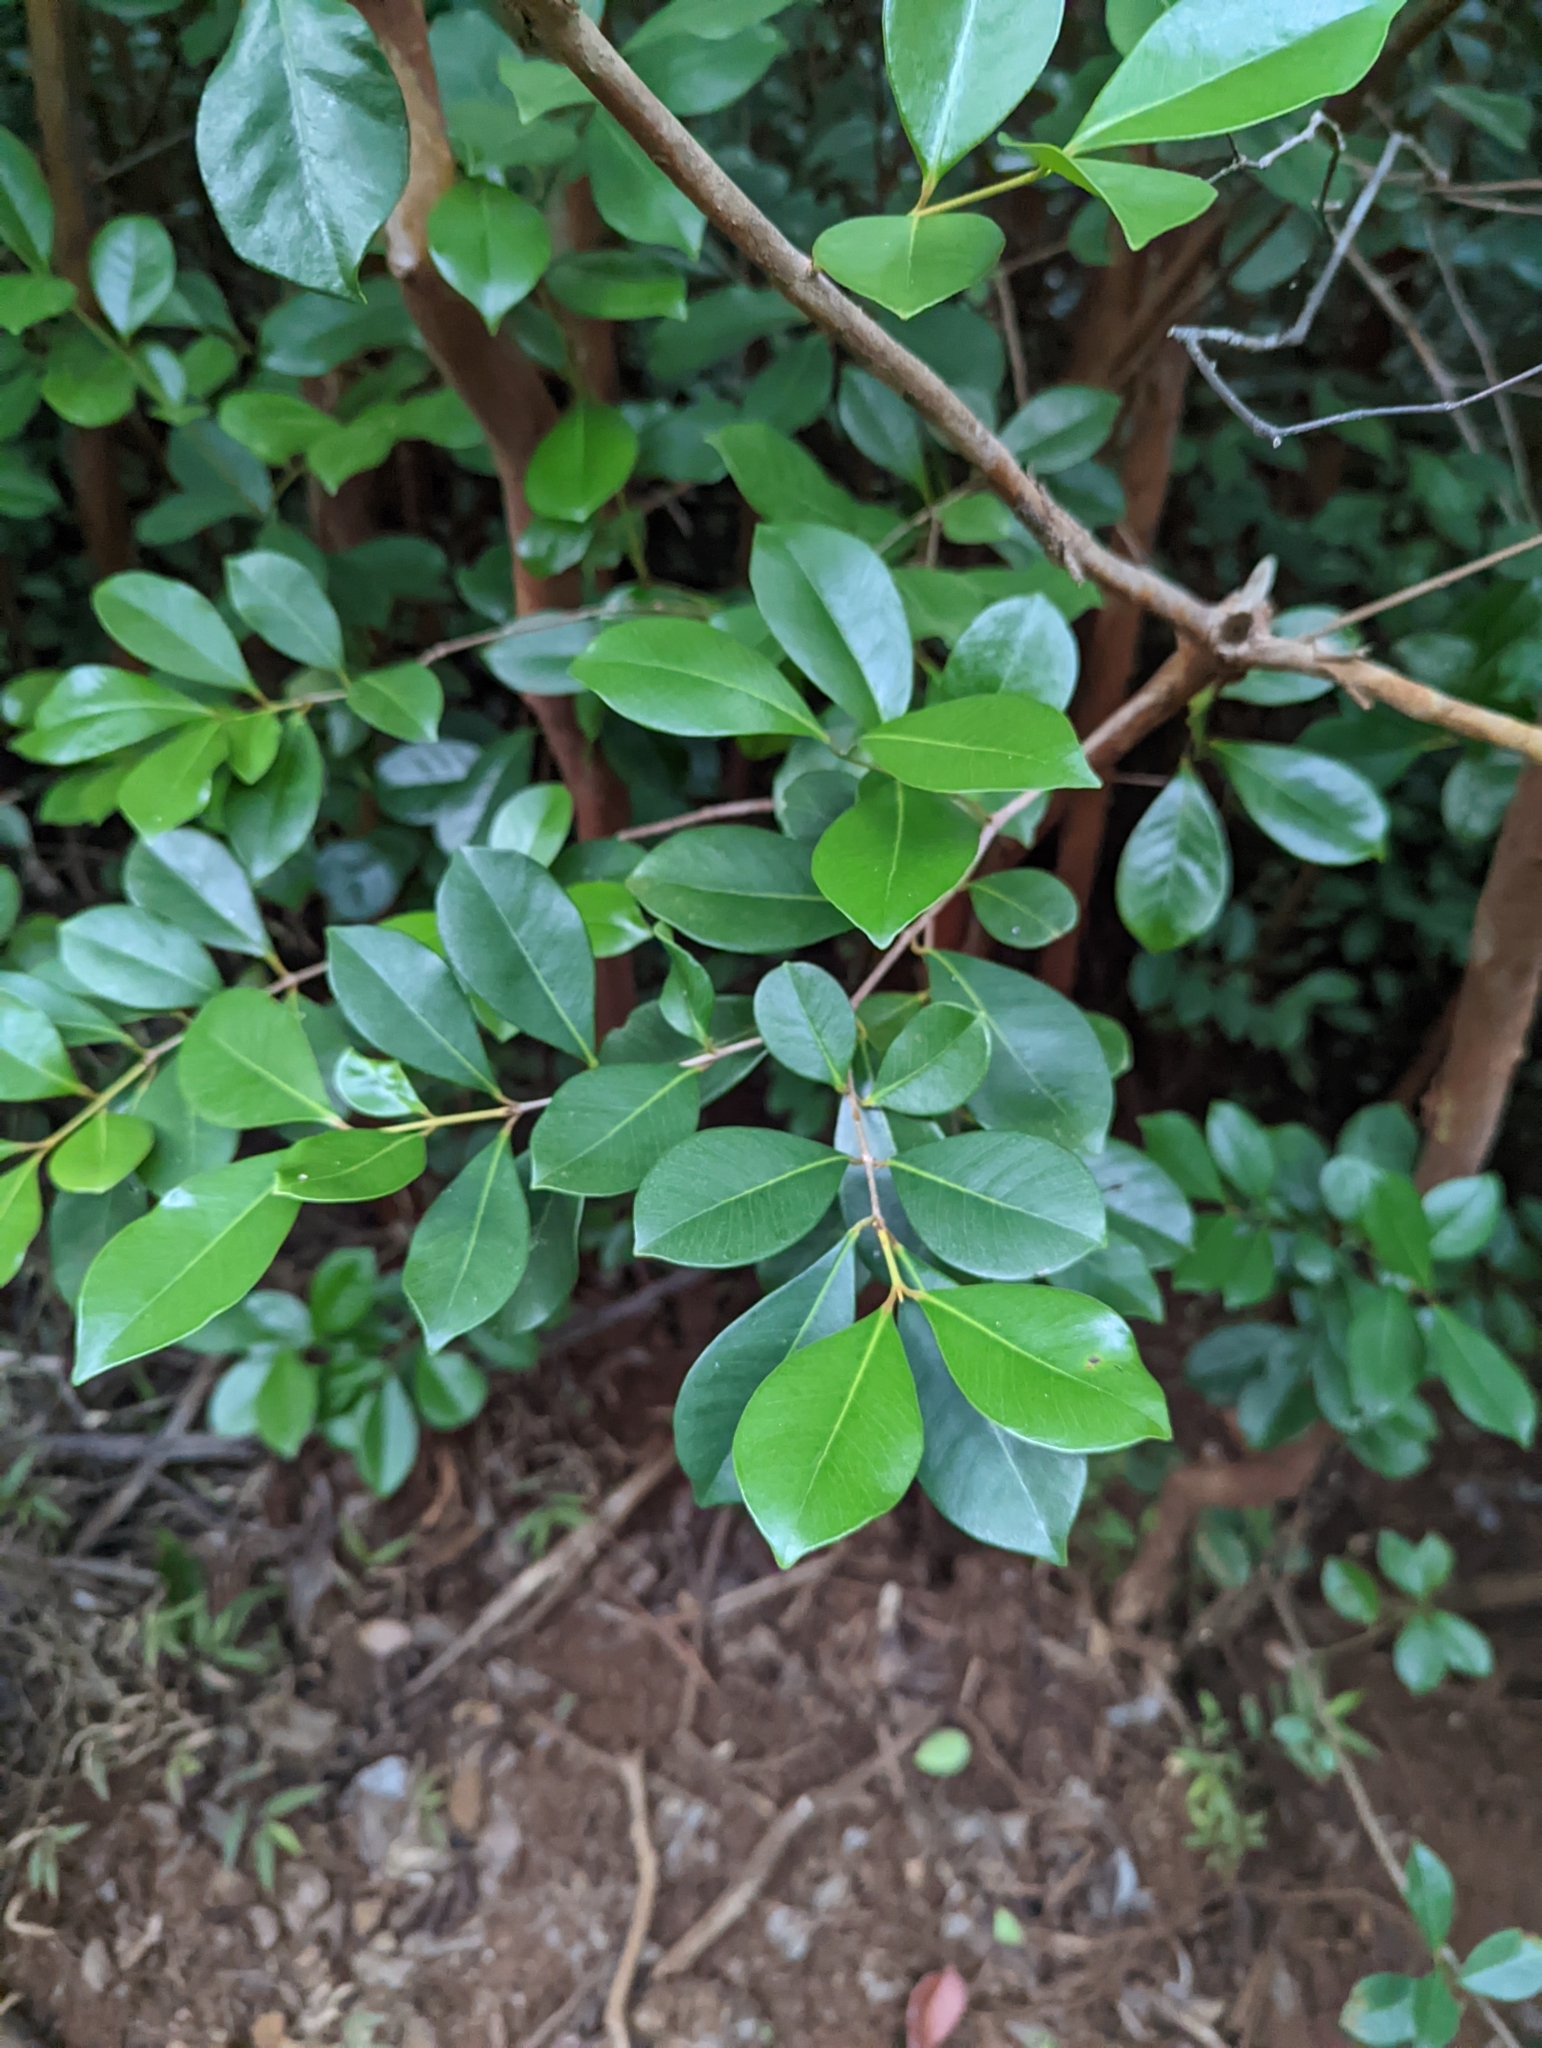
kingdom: Plantae
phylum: Tracheophyta
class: Magnoliopsida
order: Myrtales
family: Myrtaceae
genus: Psidium
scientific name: Psidium cattleianum
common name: Strawberry guava
